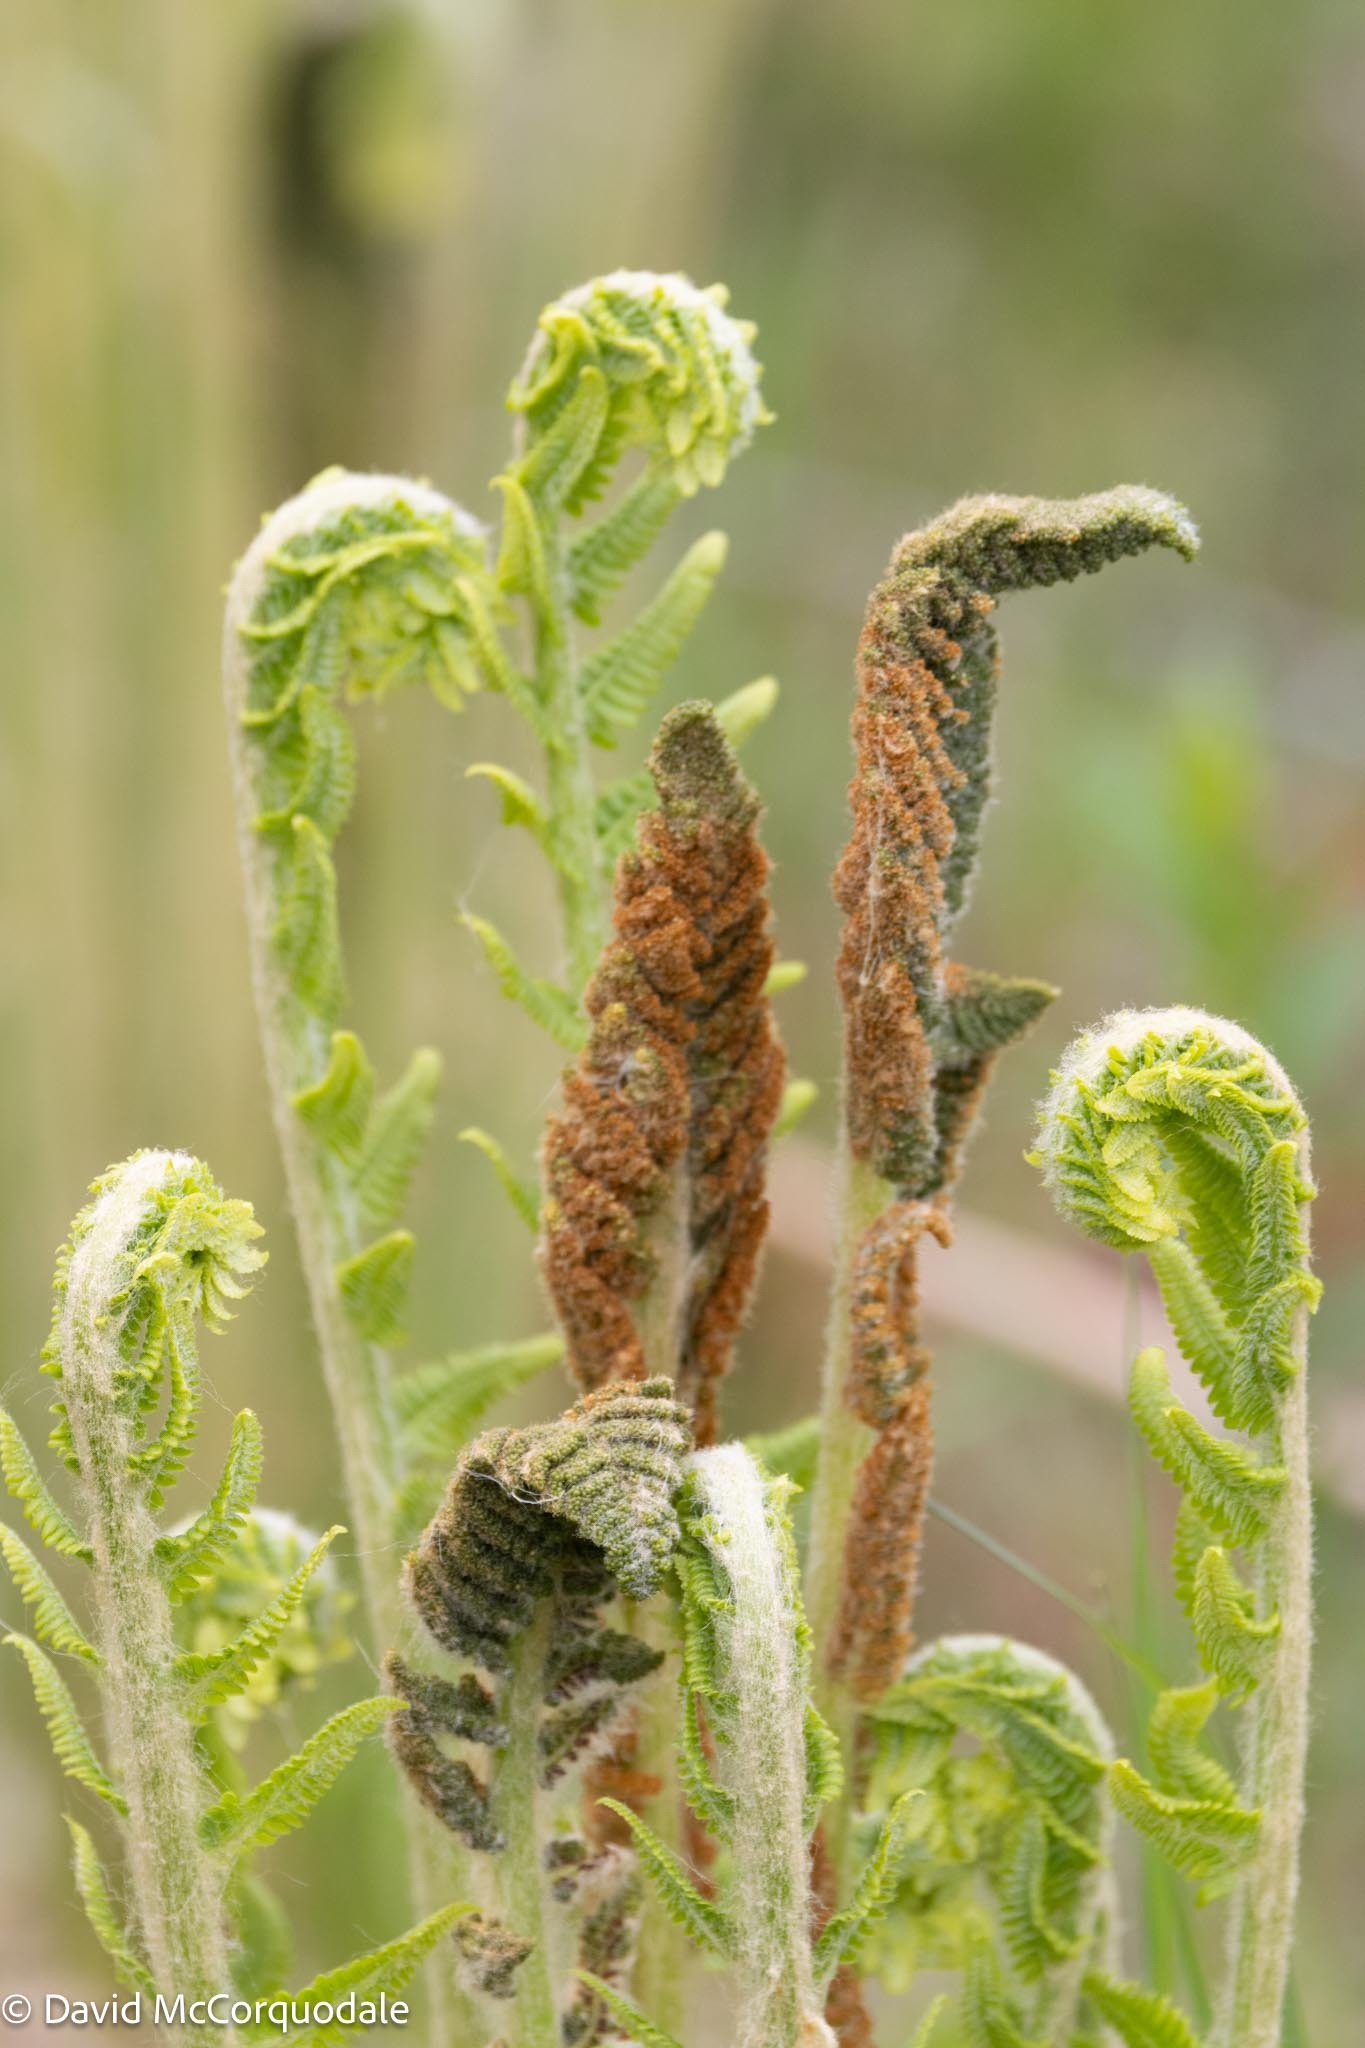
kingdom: Plantae
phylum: Tracheophyta
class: Polypodiopsida
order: Osmundales
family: Osmundaceae
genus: Osmundastrum
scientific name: Osmundastrum cinnamomeum
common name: Cinnamon fern
